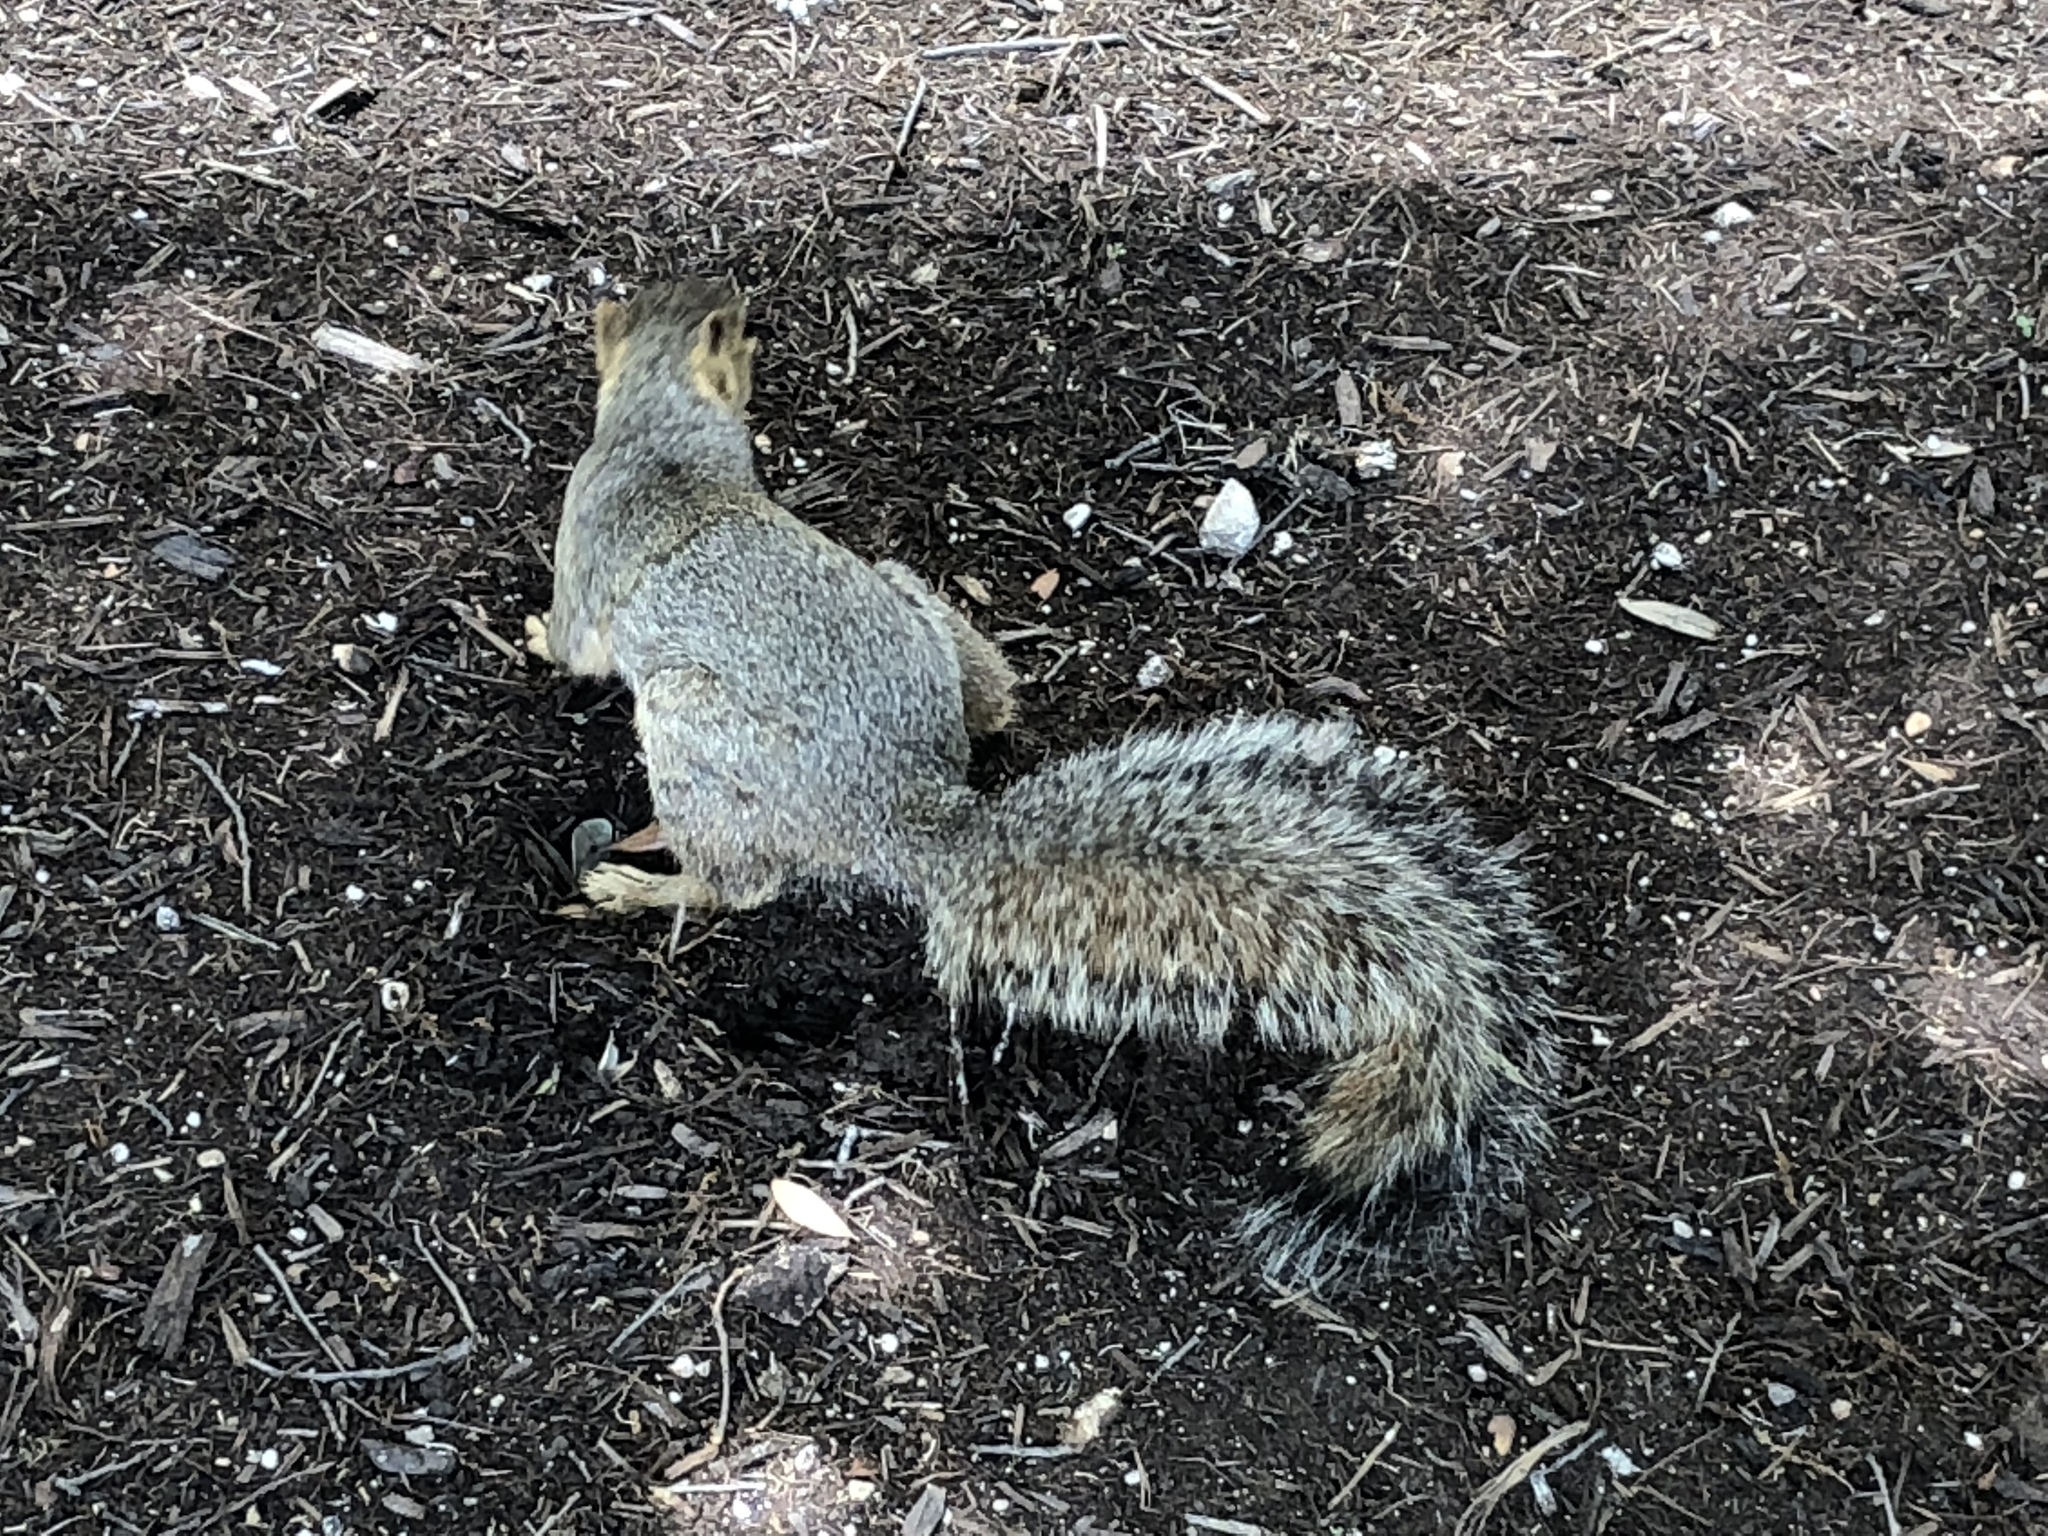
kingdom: Animalia
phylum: Chordata
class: Mammalia
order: Rodentia
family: Sciuridae
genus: Sciurus
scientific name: Sciurus niger
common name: Fox squirrel
